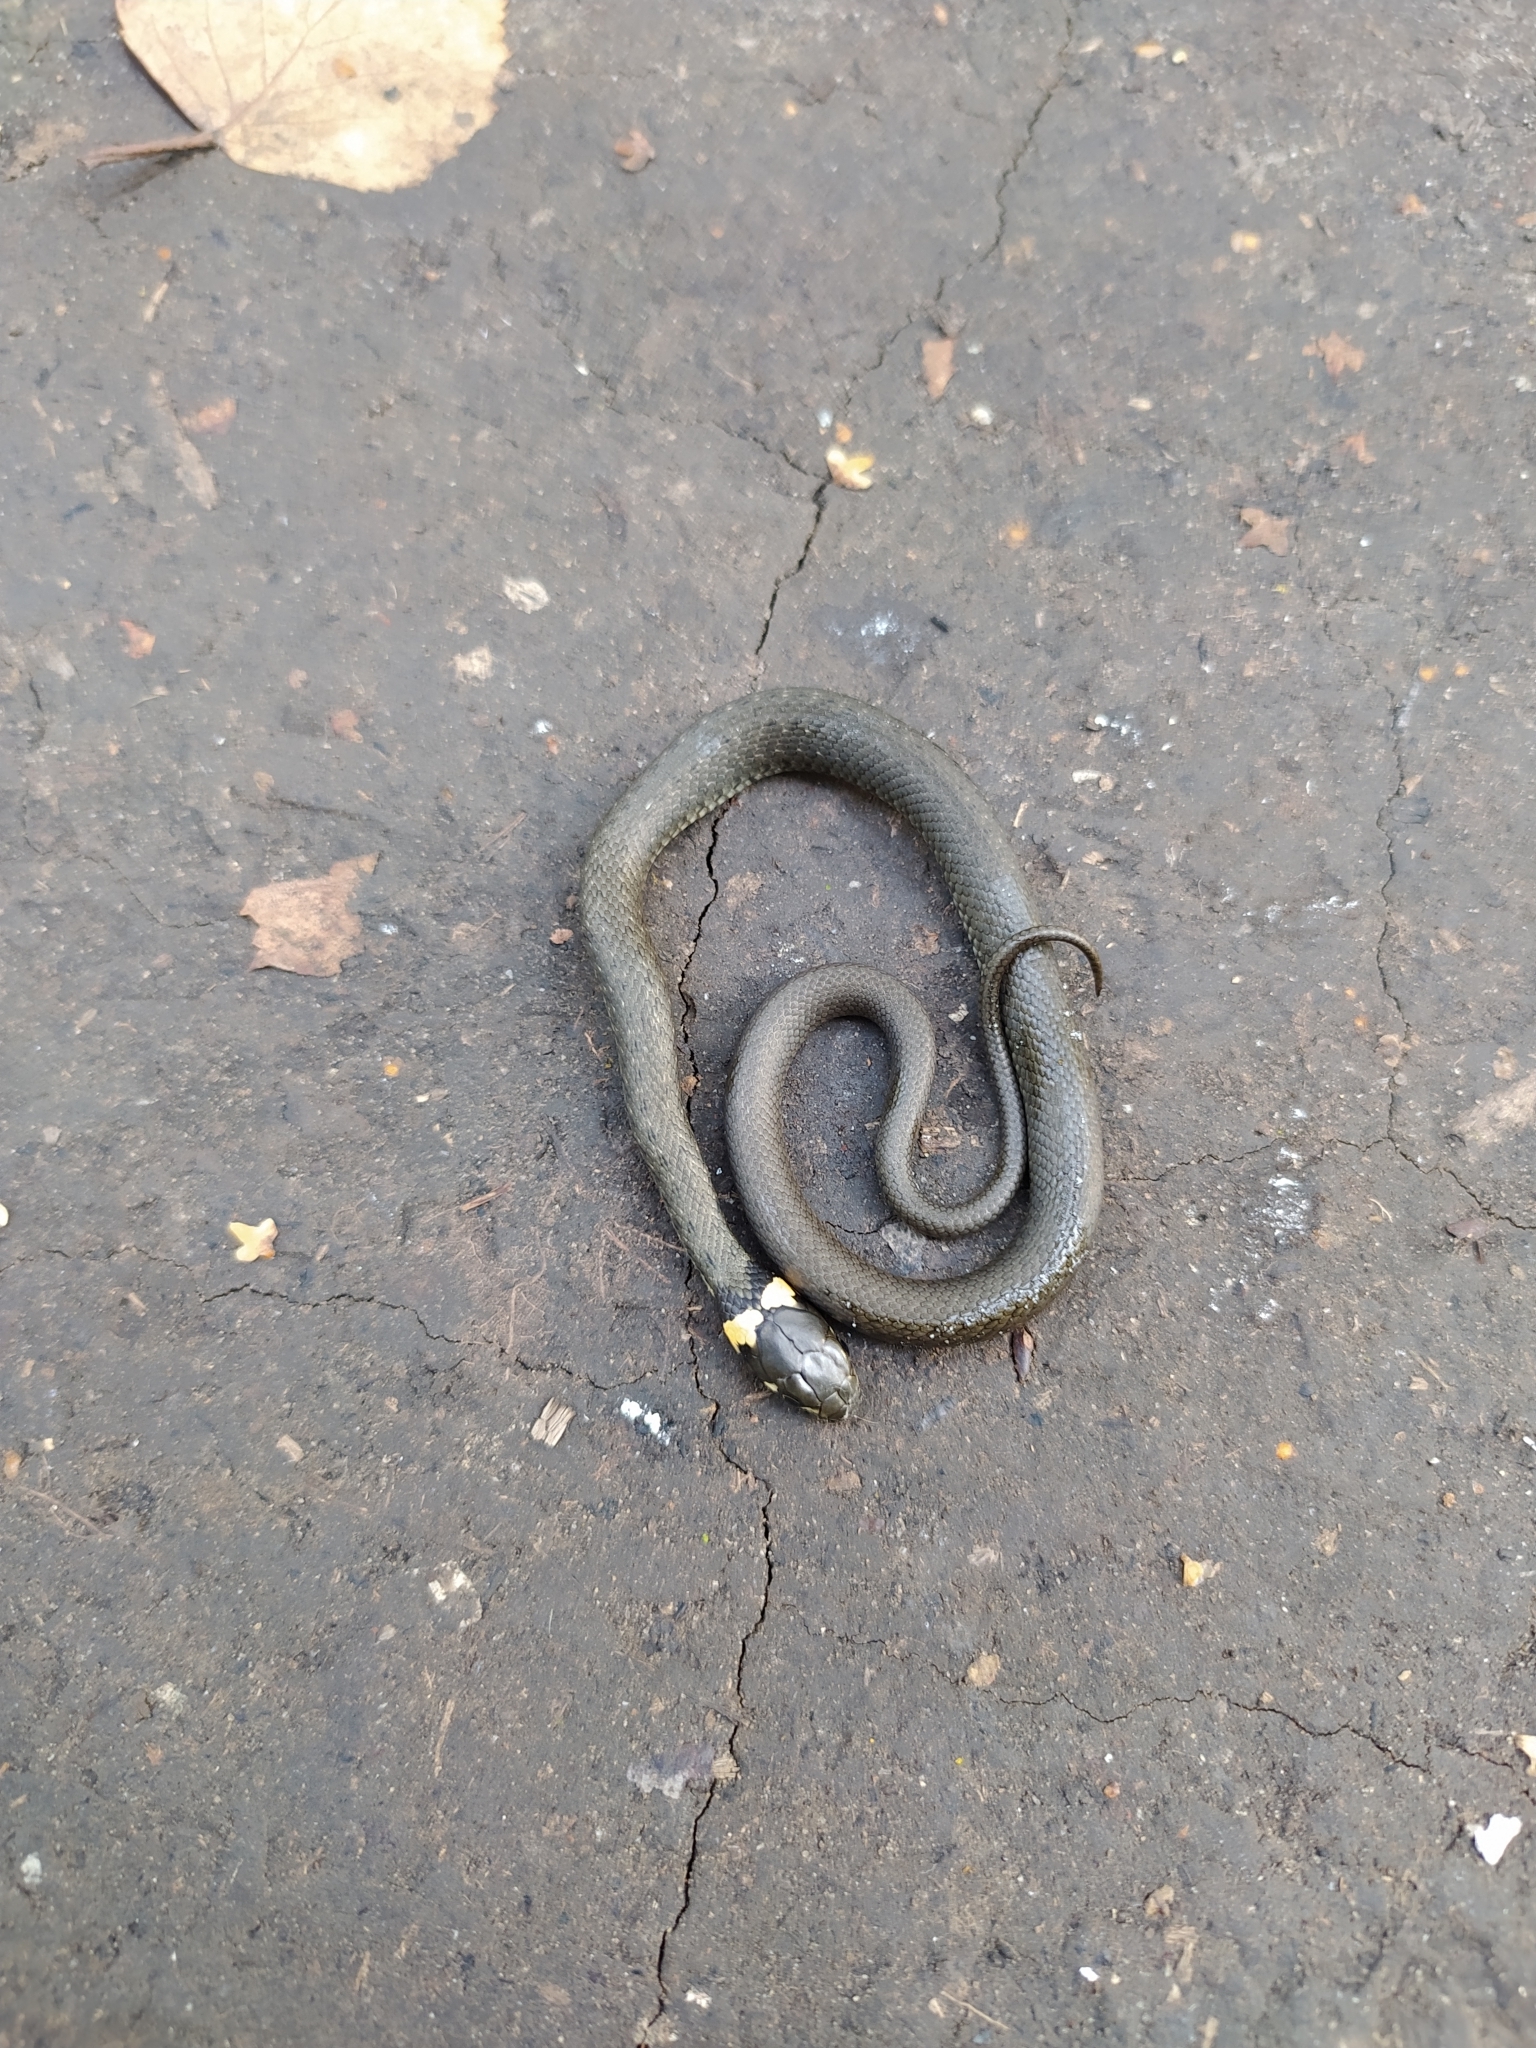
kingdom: Animalia
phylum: Chordata
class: Squamata
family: Colubridae
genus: Natrix
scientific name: Natrix natrix
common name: Grass snake
